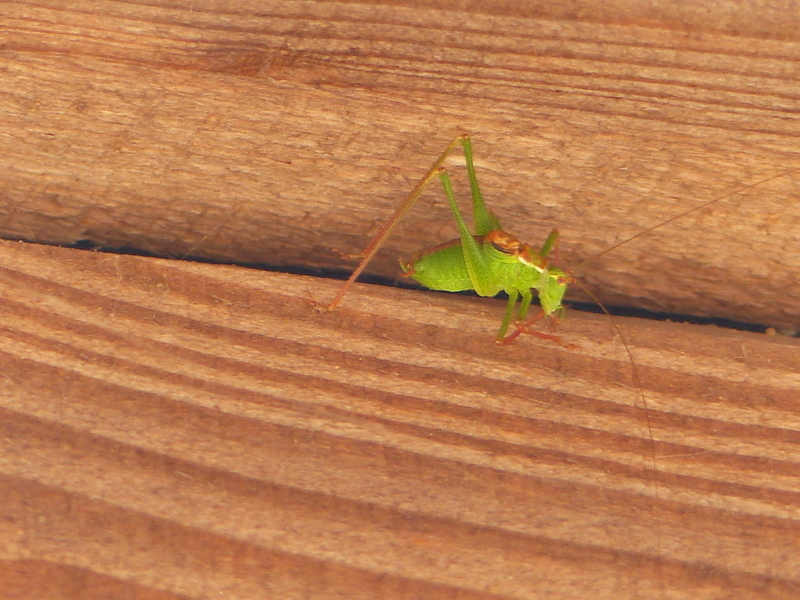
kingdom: Animalia
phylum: Arthropoda
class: Insecta
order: Orthoptera
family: Tettigoniidae
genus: Leptophyes
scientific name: Leptophyes punctatissima
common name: Speckled bush-cricket
